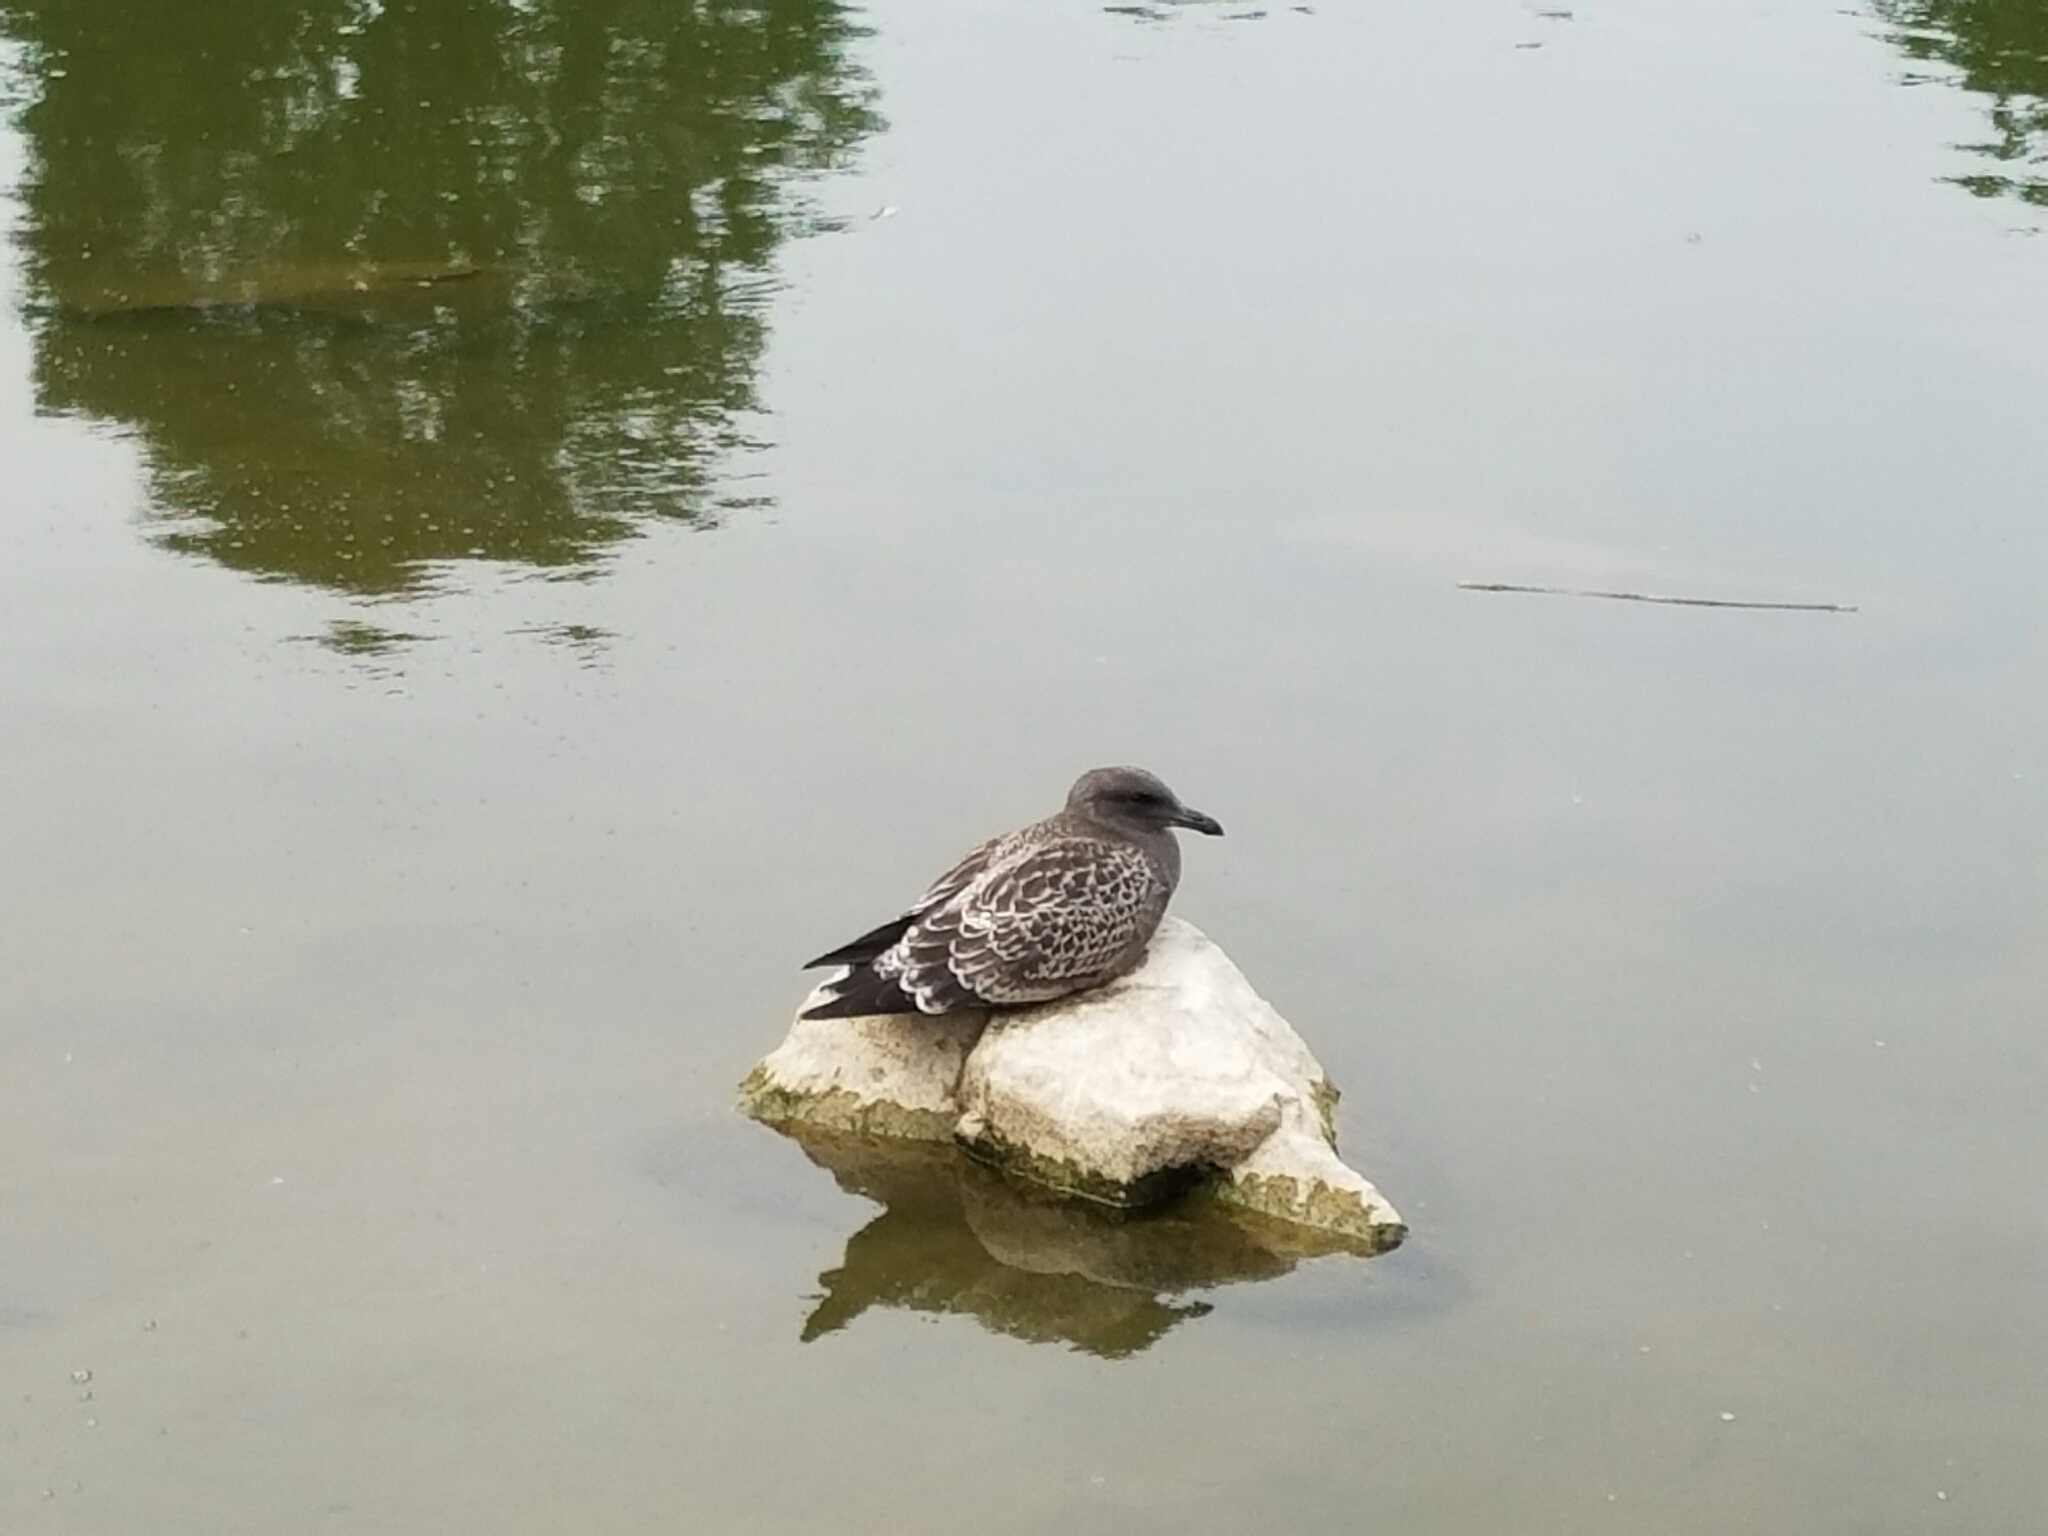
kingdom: Animalia
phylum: Chordata
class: Aves
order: Charadriiformes
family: Laridae
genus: Larus
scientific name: Larus occidentalis
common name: Western gull
